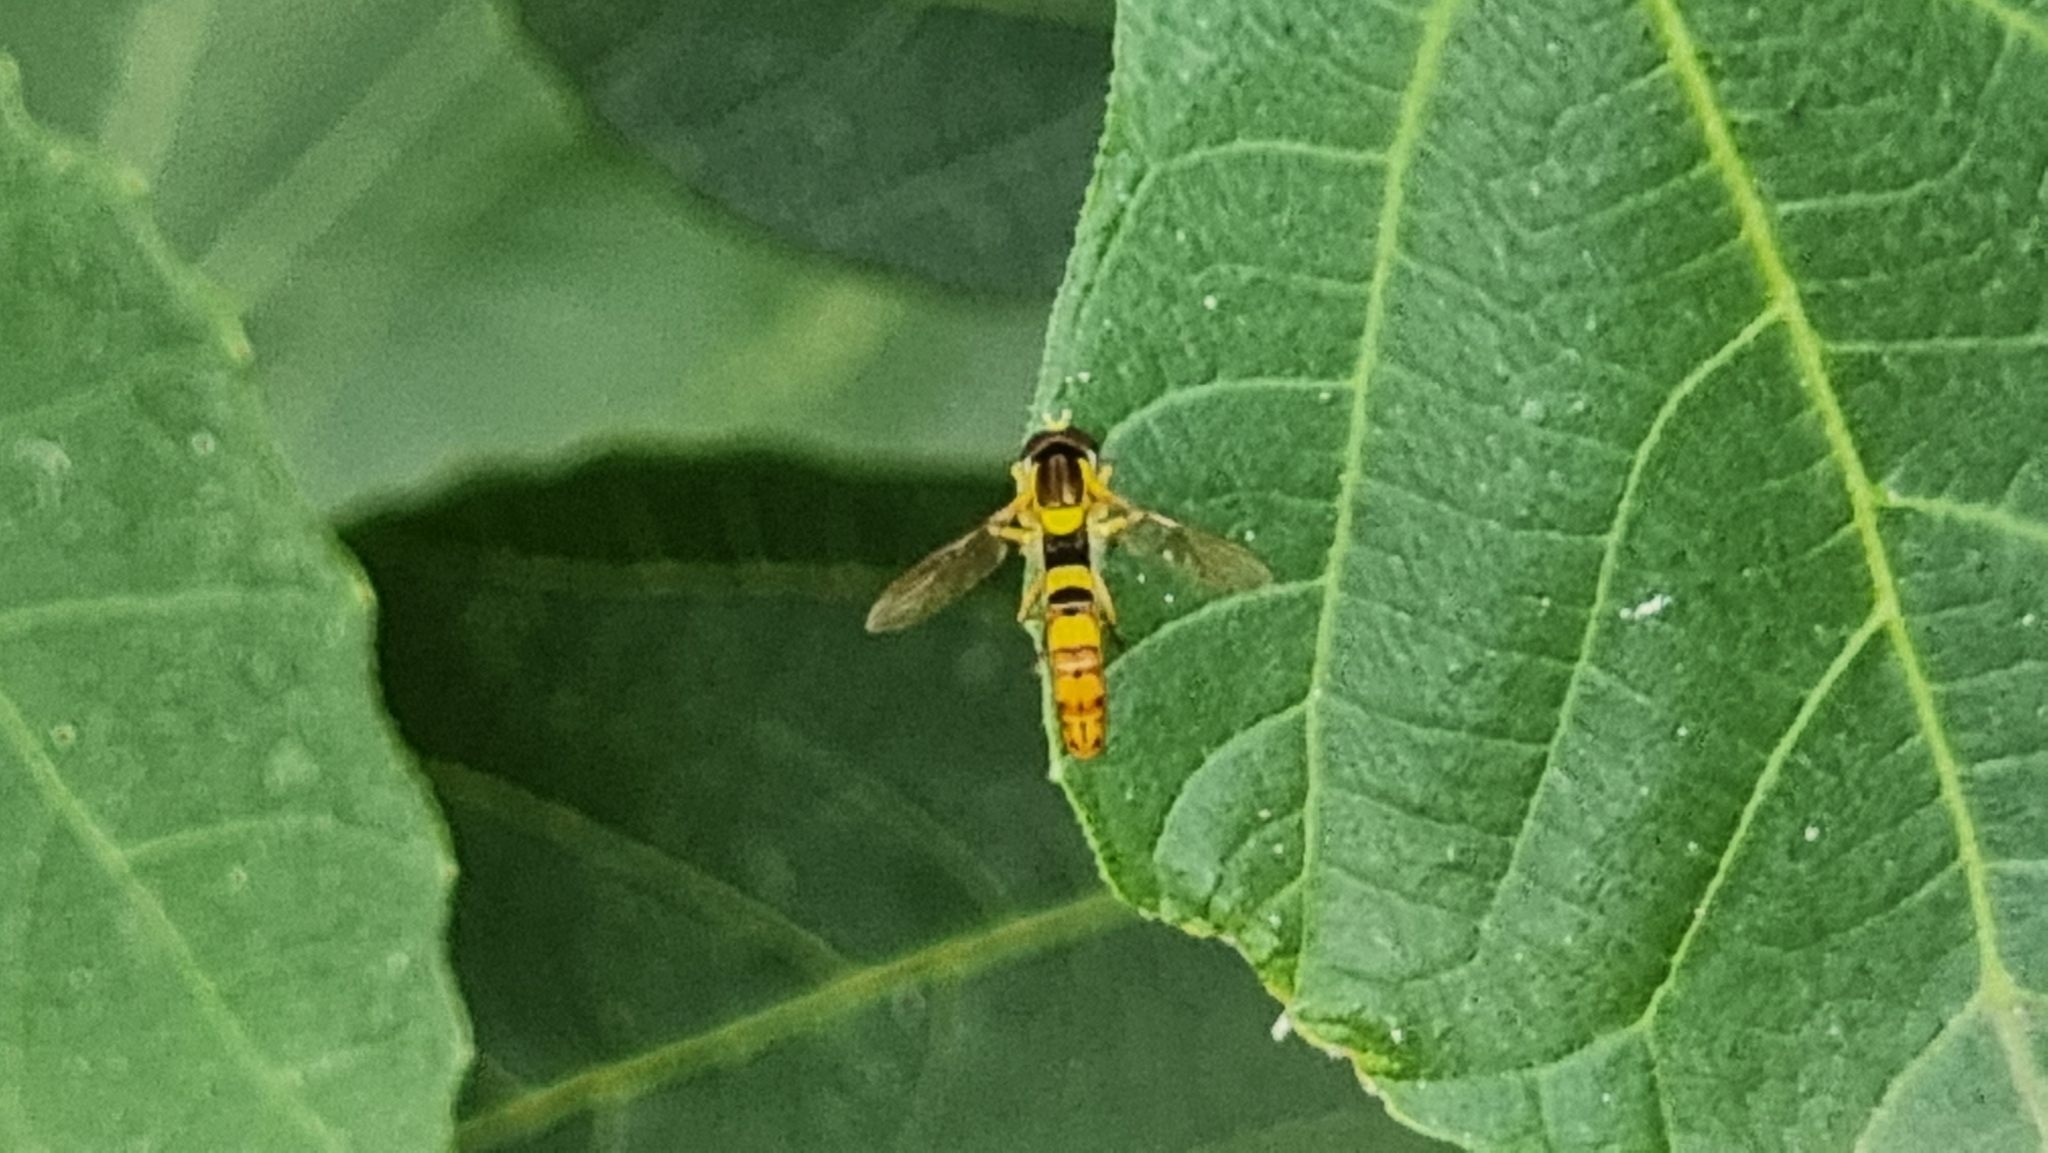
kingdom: Animalia
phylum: Arthropoda
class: Insecta
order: Diptera
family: Syrphidae
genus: Sphaerophoria
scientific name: Sphaerophoria scripta
